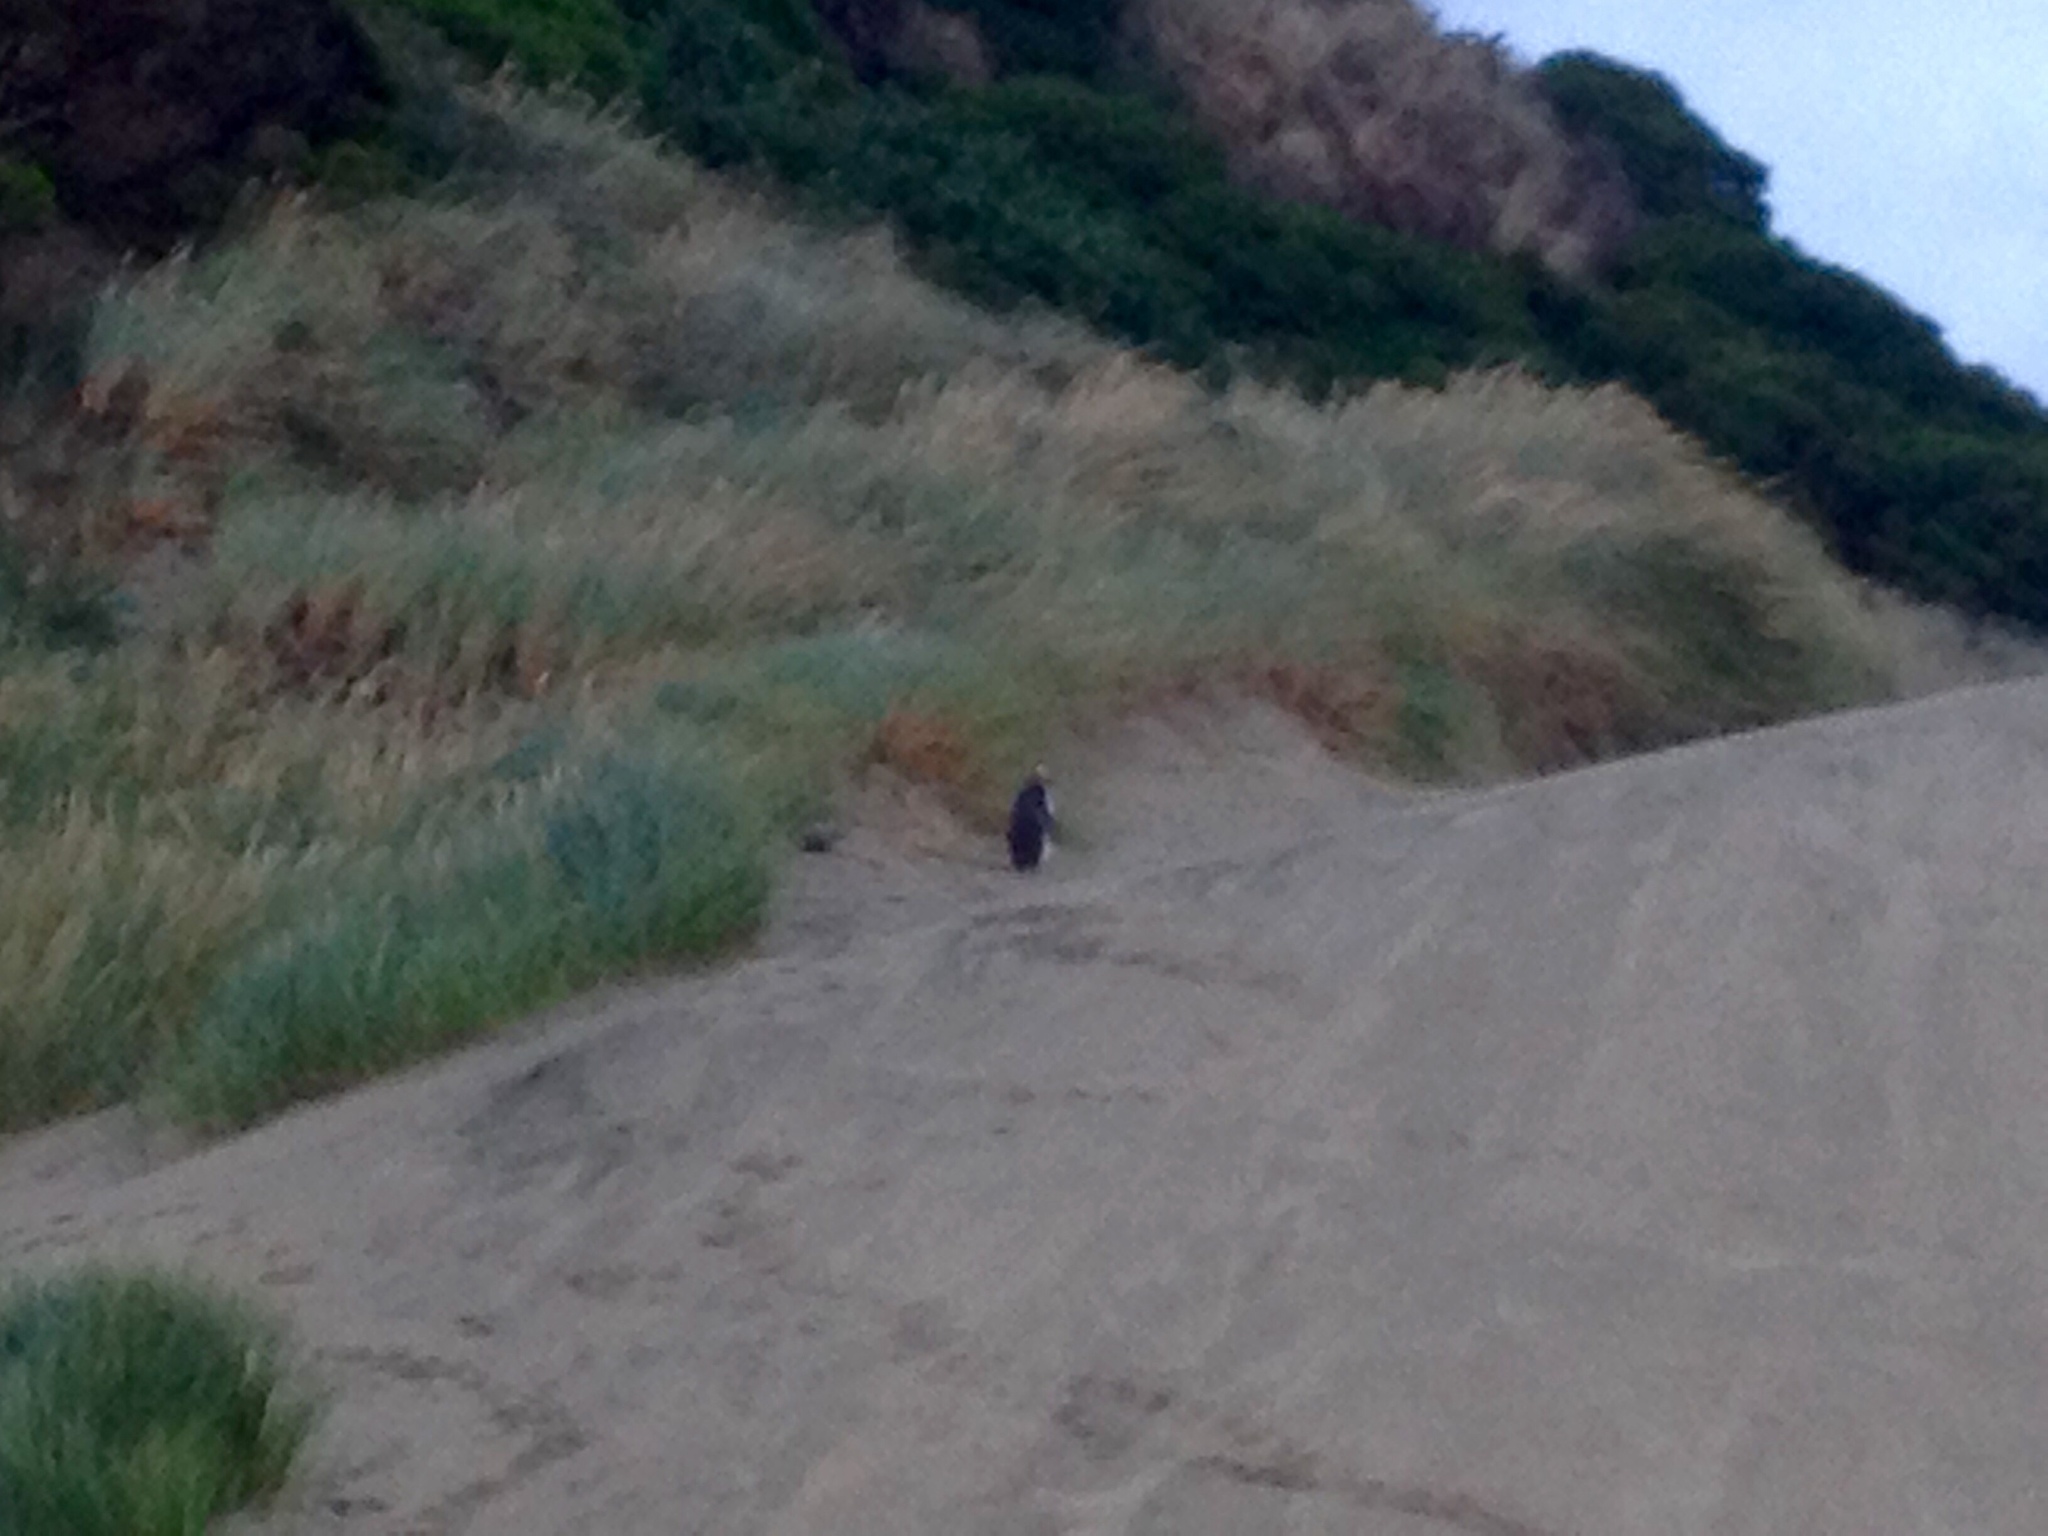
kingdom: Animalia
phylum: Chordata
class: Aves
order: Sphenisciformes
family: Spheniscidae
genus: Megadyptes
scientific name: Megadyptes antipodes
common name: Yellow-eyed penguin
